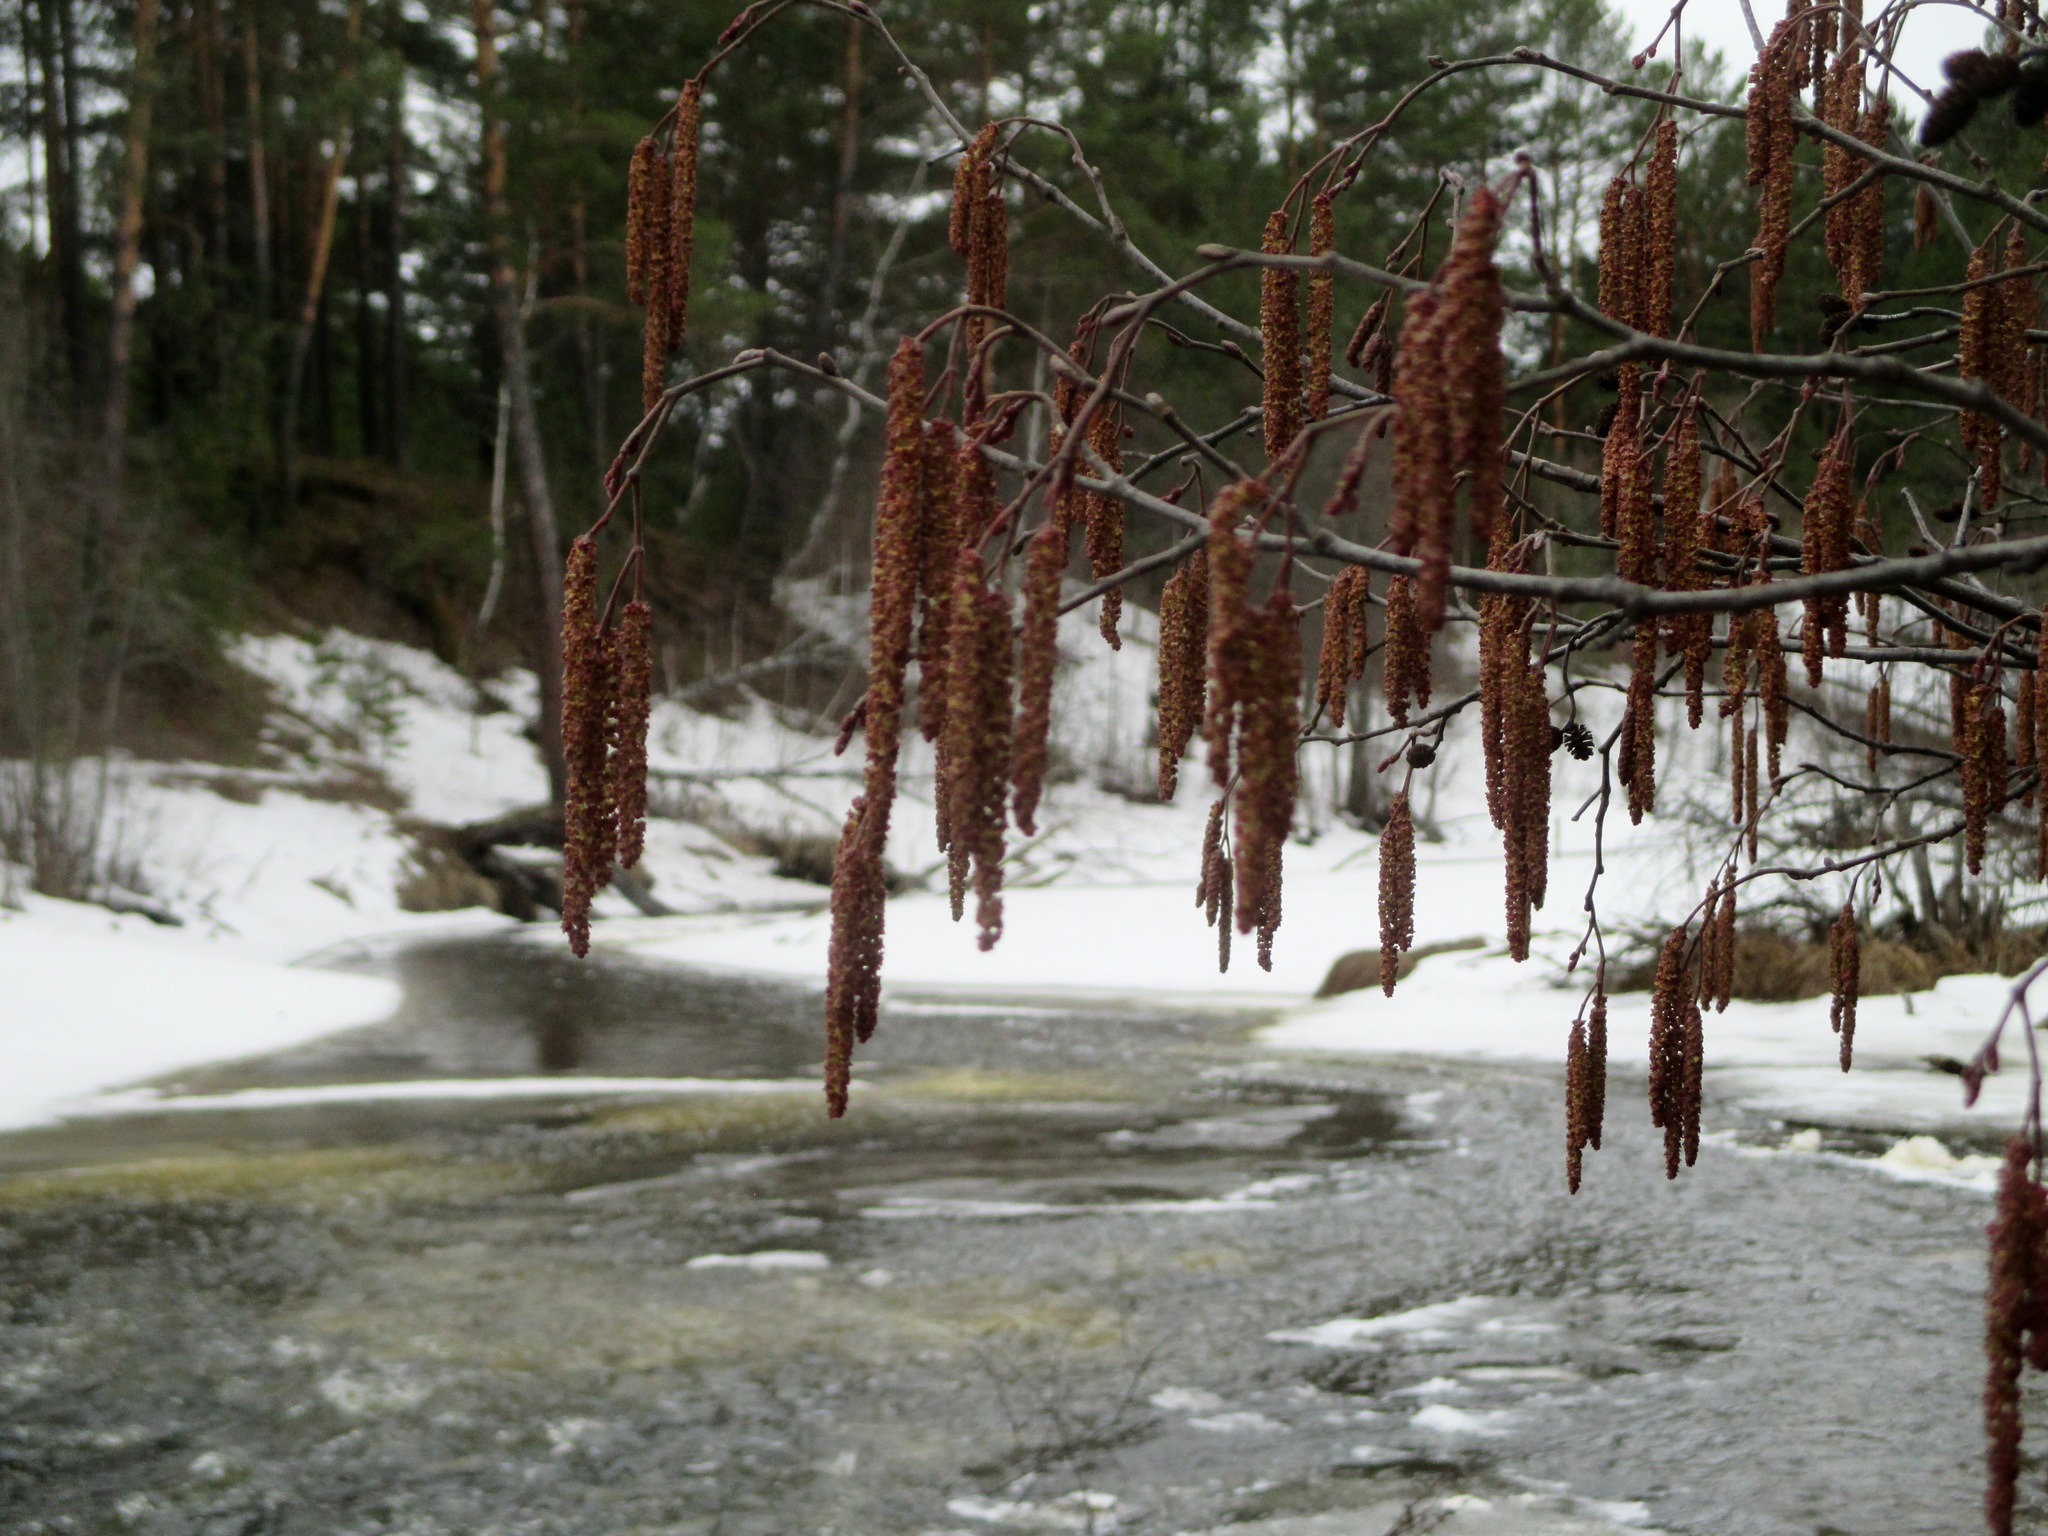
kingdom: Plantae
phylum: Tracheophyta
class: Magnoliopsida
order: Fagales
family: Betulaceae
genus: Alnus
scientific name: Alnus incana
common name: Grey alder
